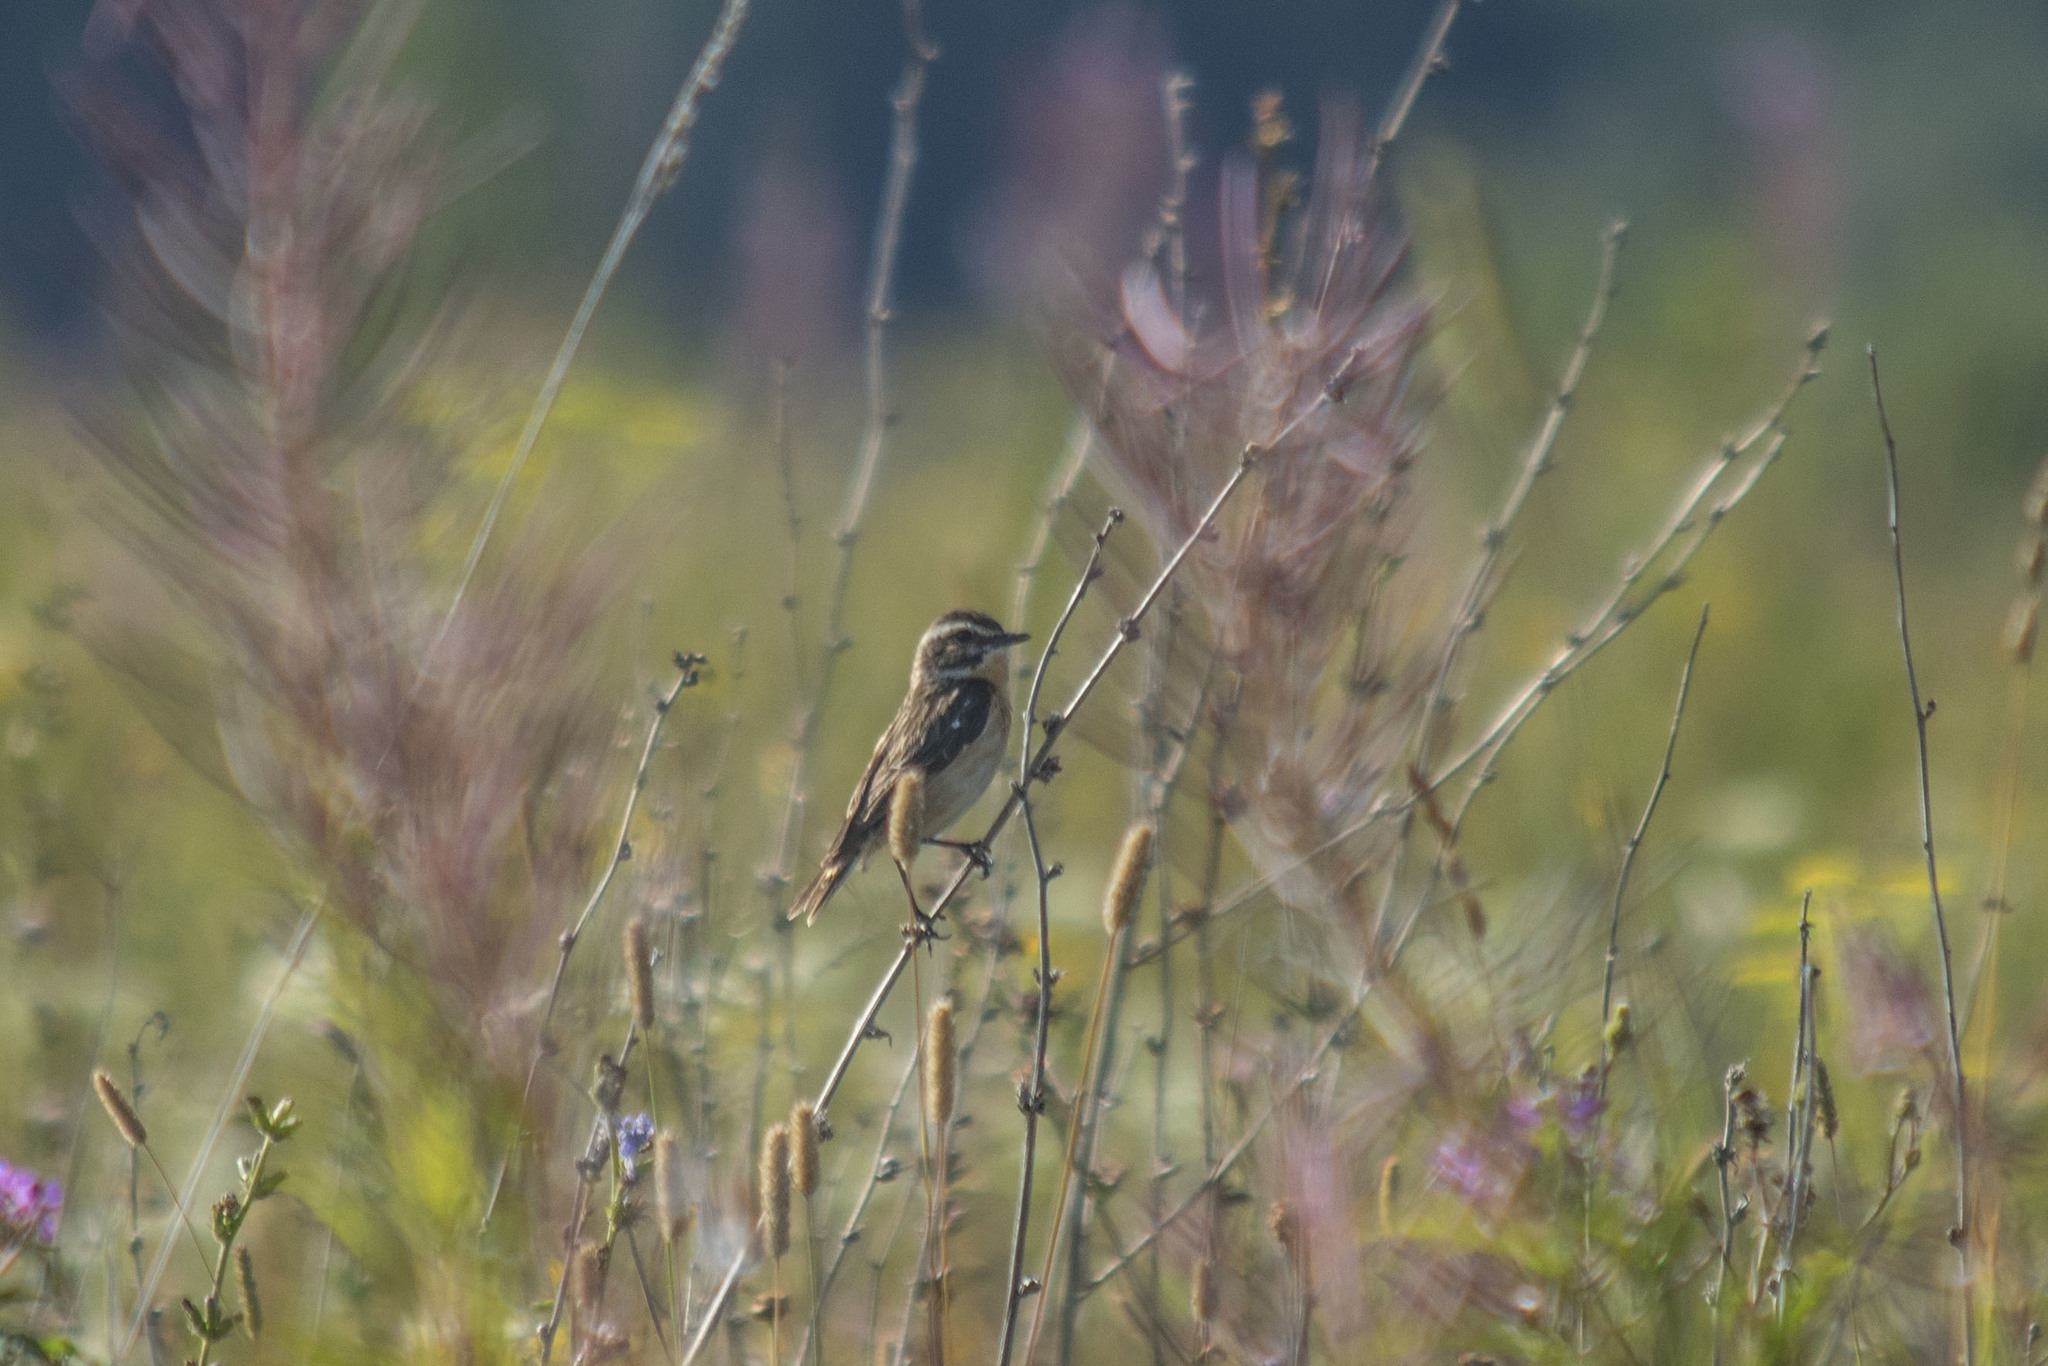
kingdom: Animalia
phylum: Chordata
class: Aves
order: Passeriformes
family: Muscicapidae
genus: Saxicola
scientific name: Saxicola rubetra
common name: Whinchat
